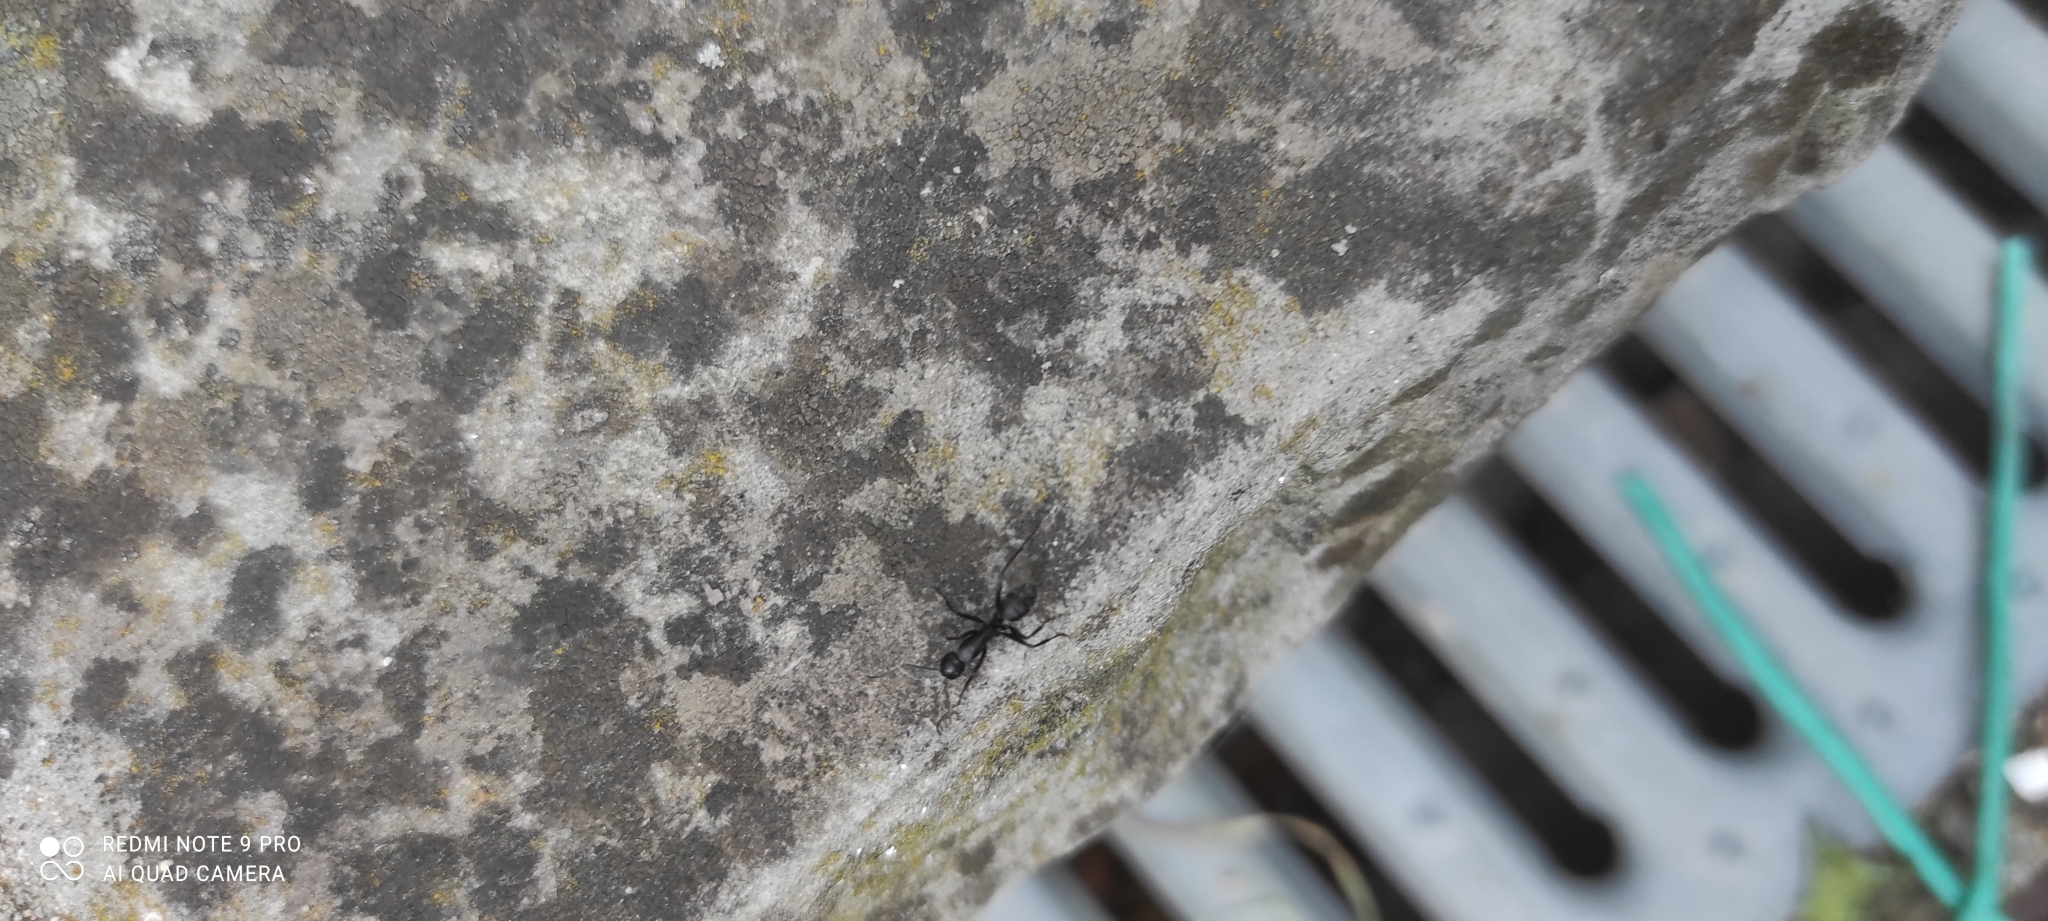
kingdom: Animalia
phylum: Arthropoda
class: Insecta
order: Hymenoptera
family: Formicidae
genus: Camponotus
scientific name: Camponotus vagus
